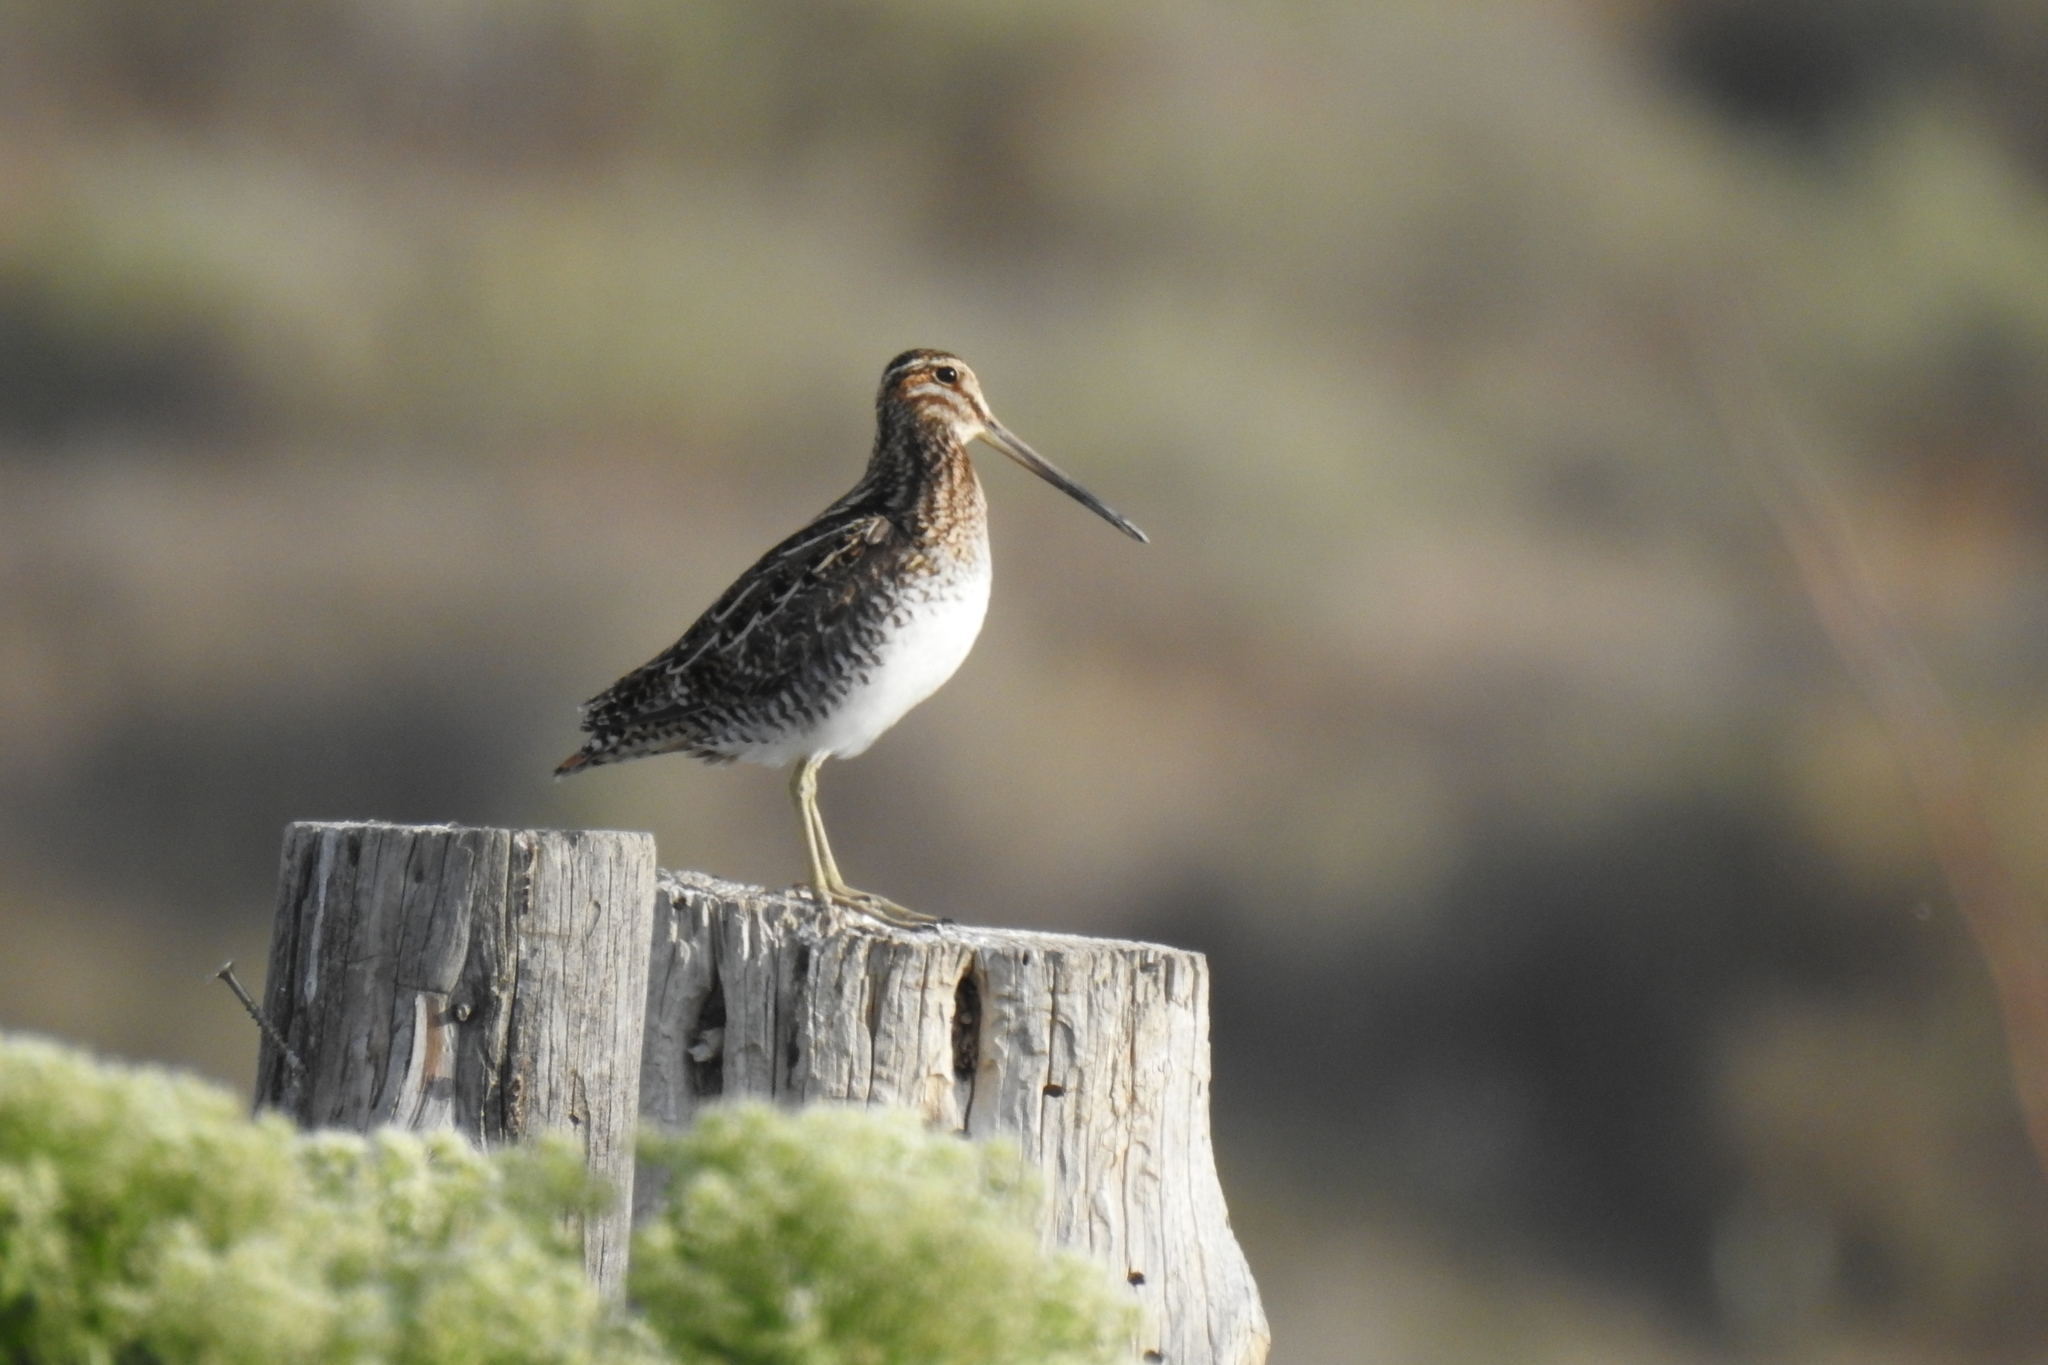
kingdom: Animalia
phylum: Chordata
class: Aves
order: Charadriiformes
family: Scolopacidae
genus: Gallinago
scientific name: Gallinago delicata
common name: Wilson's snipe
